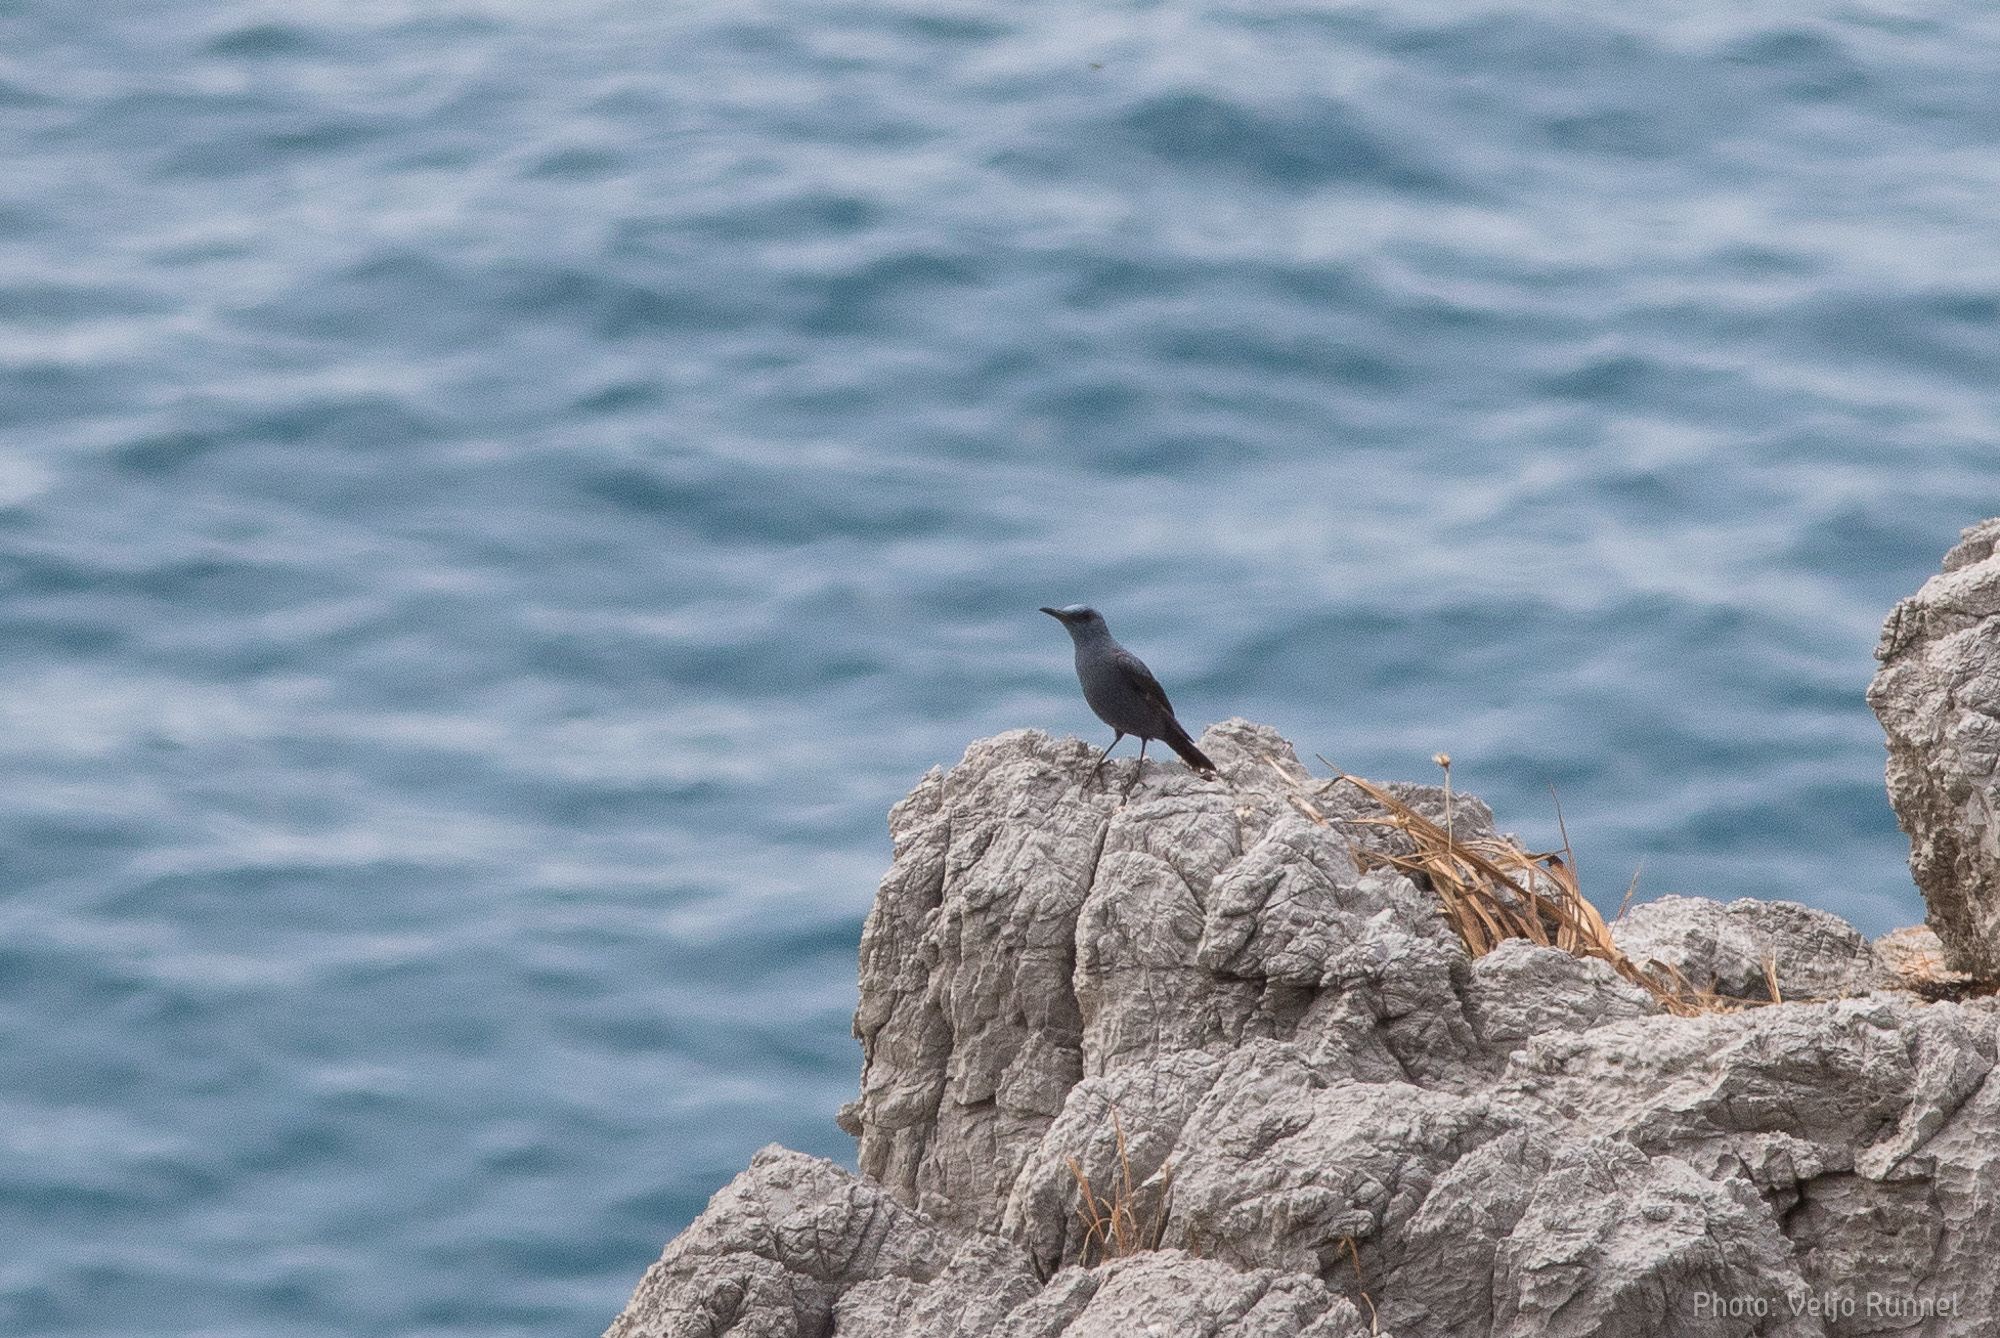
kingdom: Animalia
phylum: Chordata
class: Aves
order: Passeriformes
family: Muscicapidae
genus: Monticola
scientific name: Monticola solitarius
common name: Blue rock thrush
